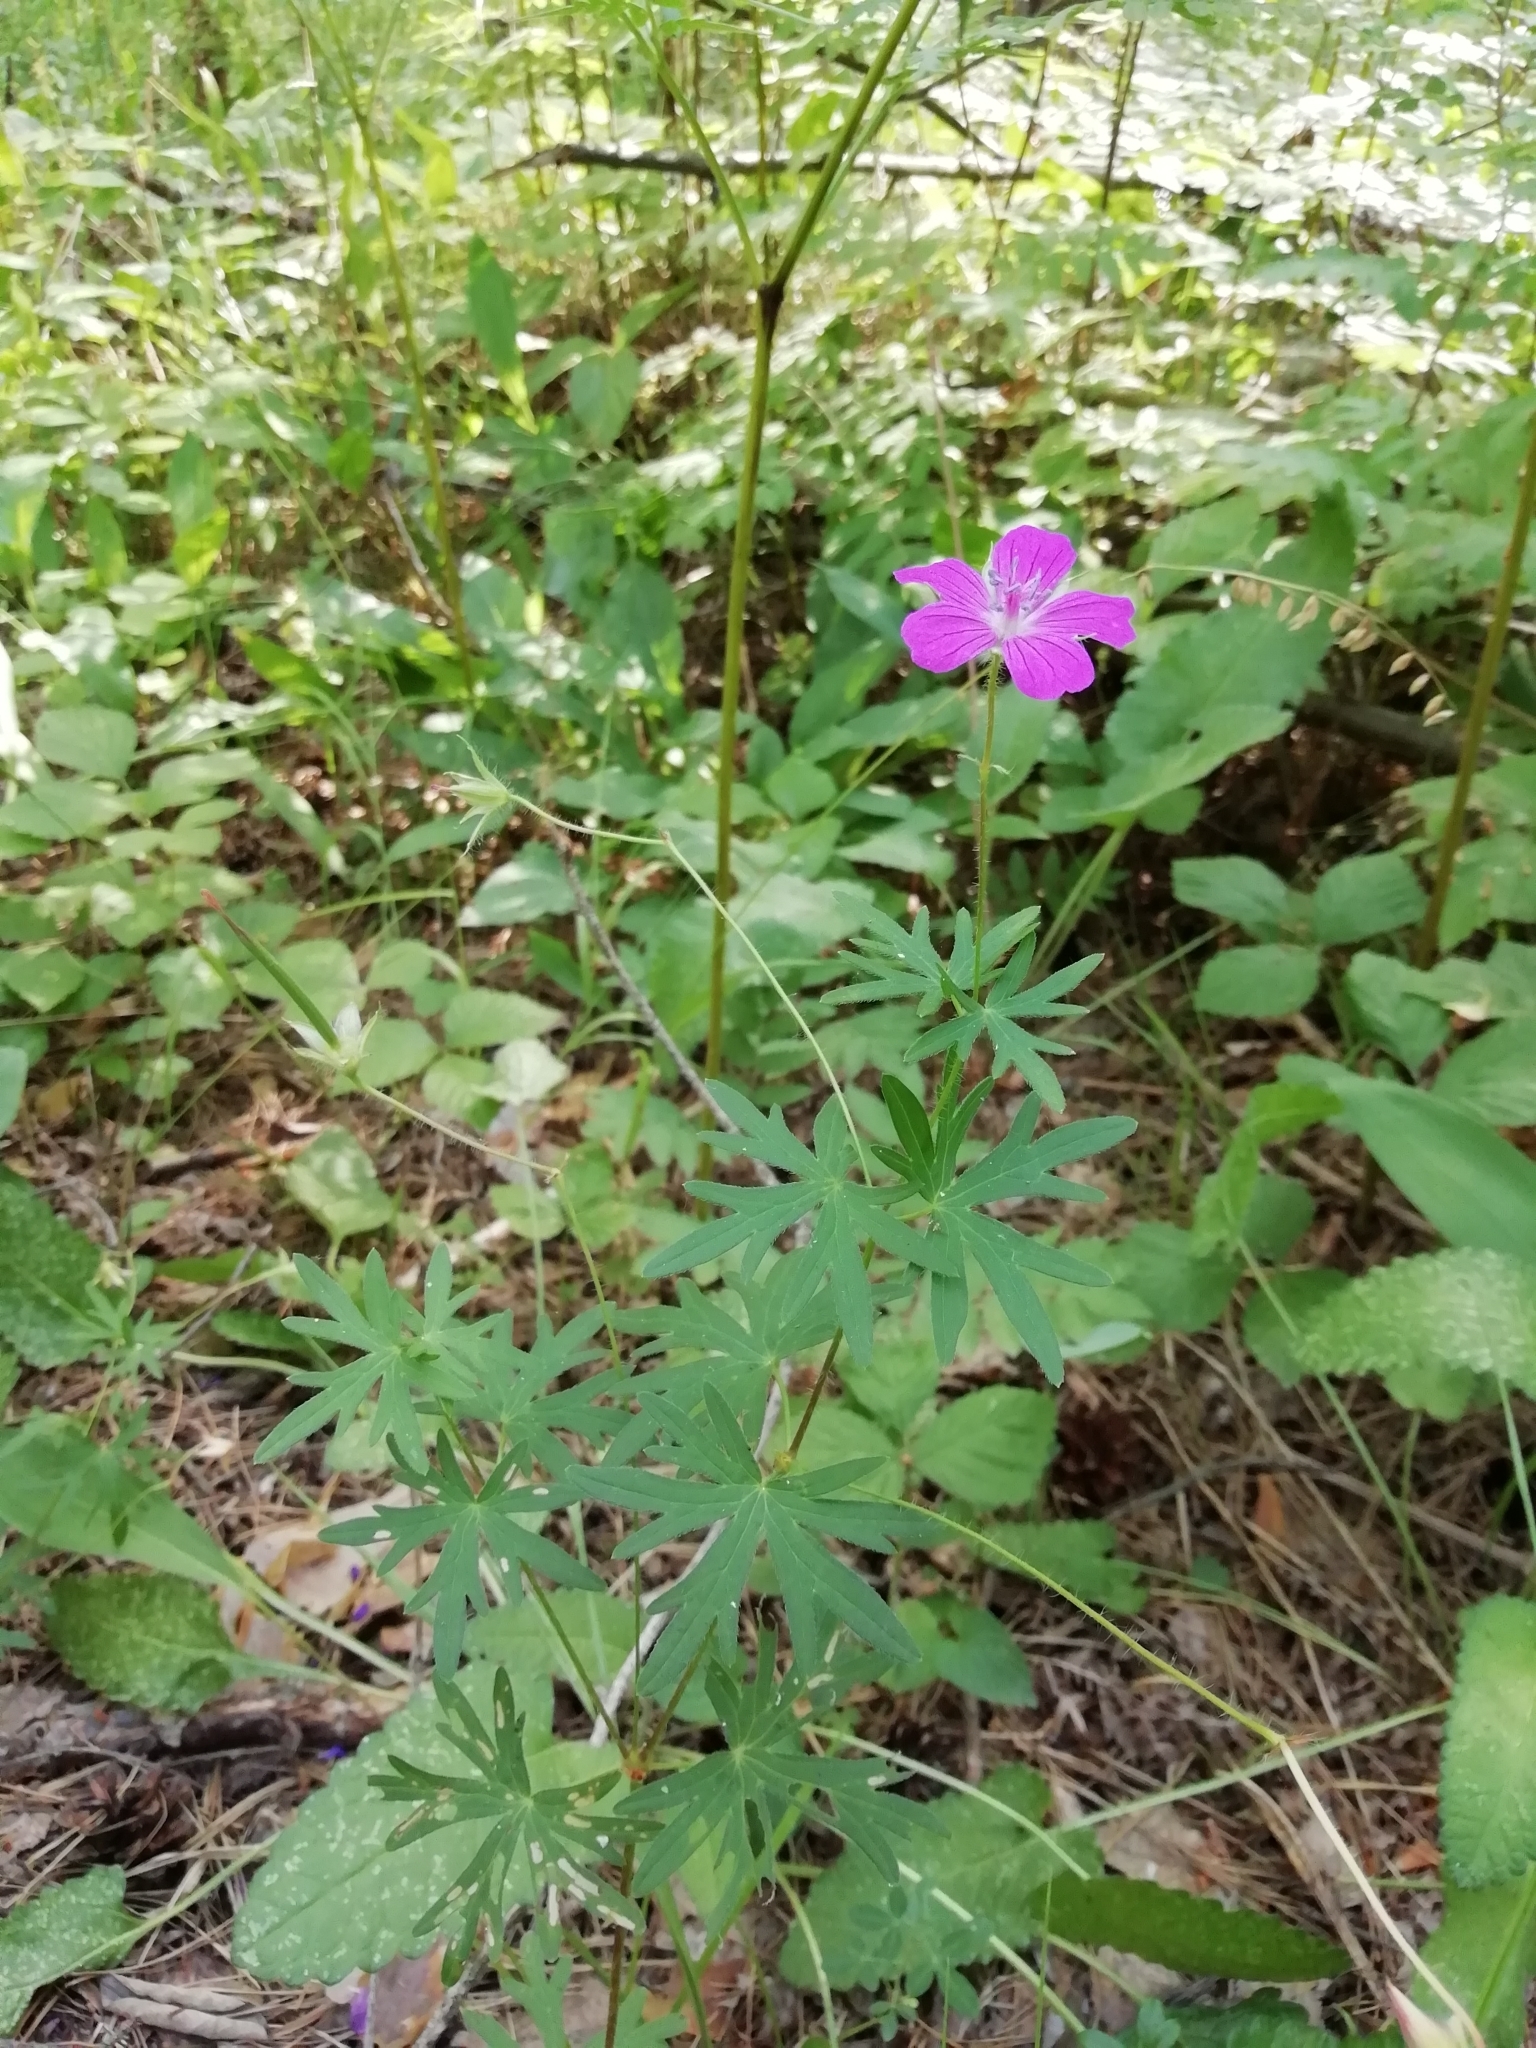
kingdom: Plantae
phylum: Tracheophyta
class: Magnoliopsida
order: Geraniales
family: Geraniaceae
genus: Geranium
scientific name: Geranium sanguineum
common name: Bloody crane's-bill
